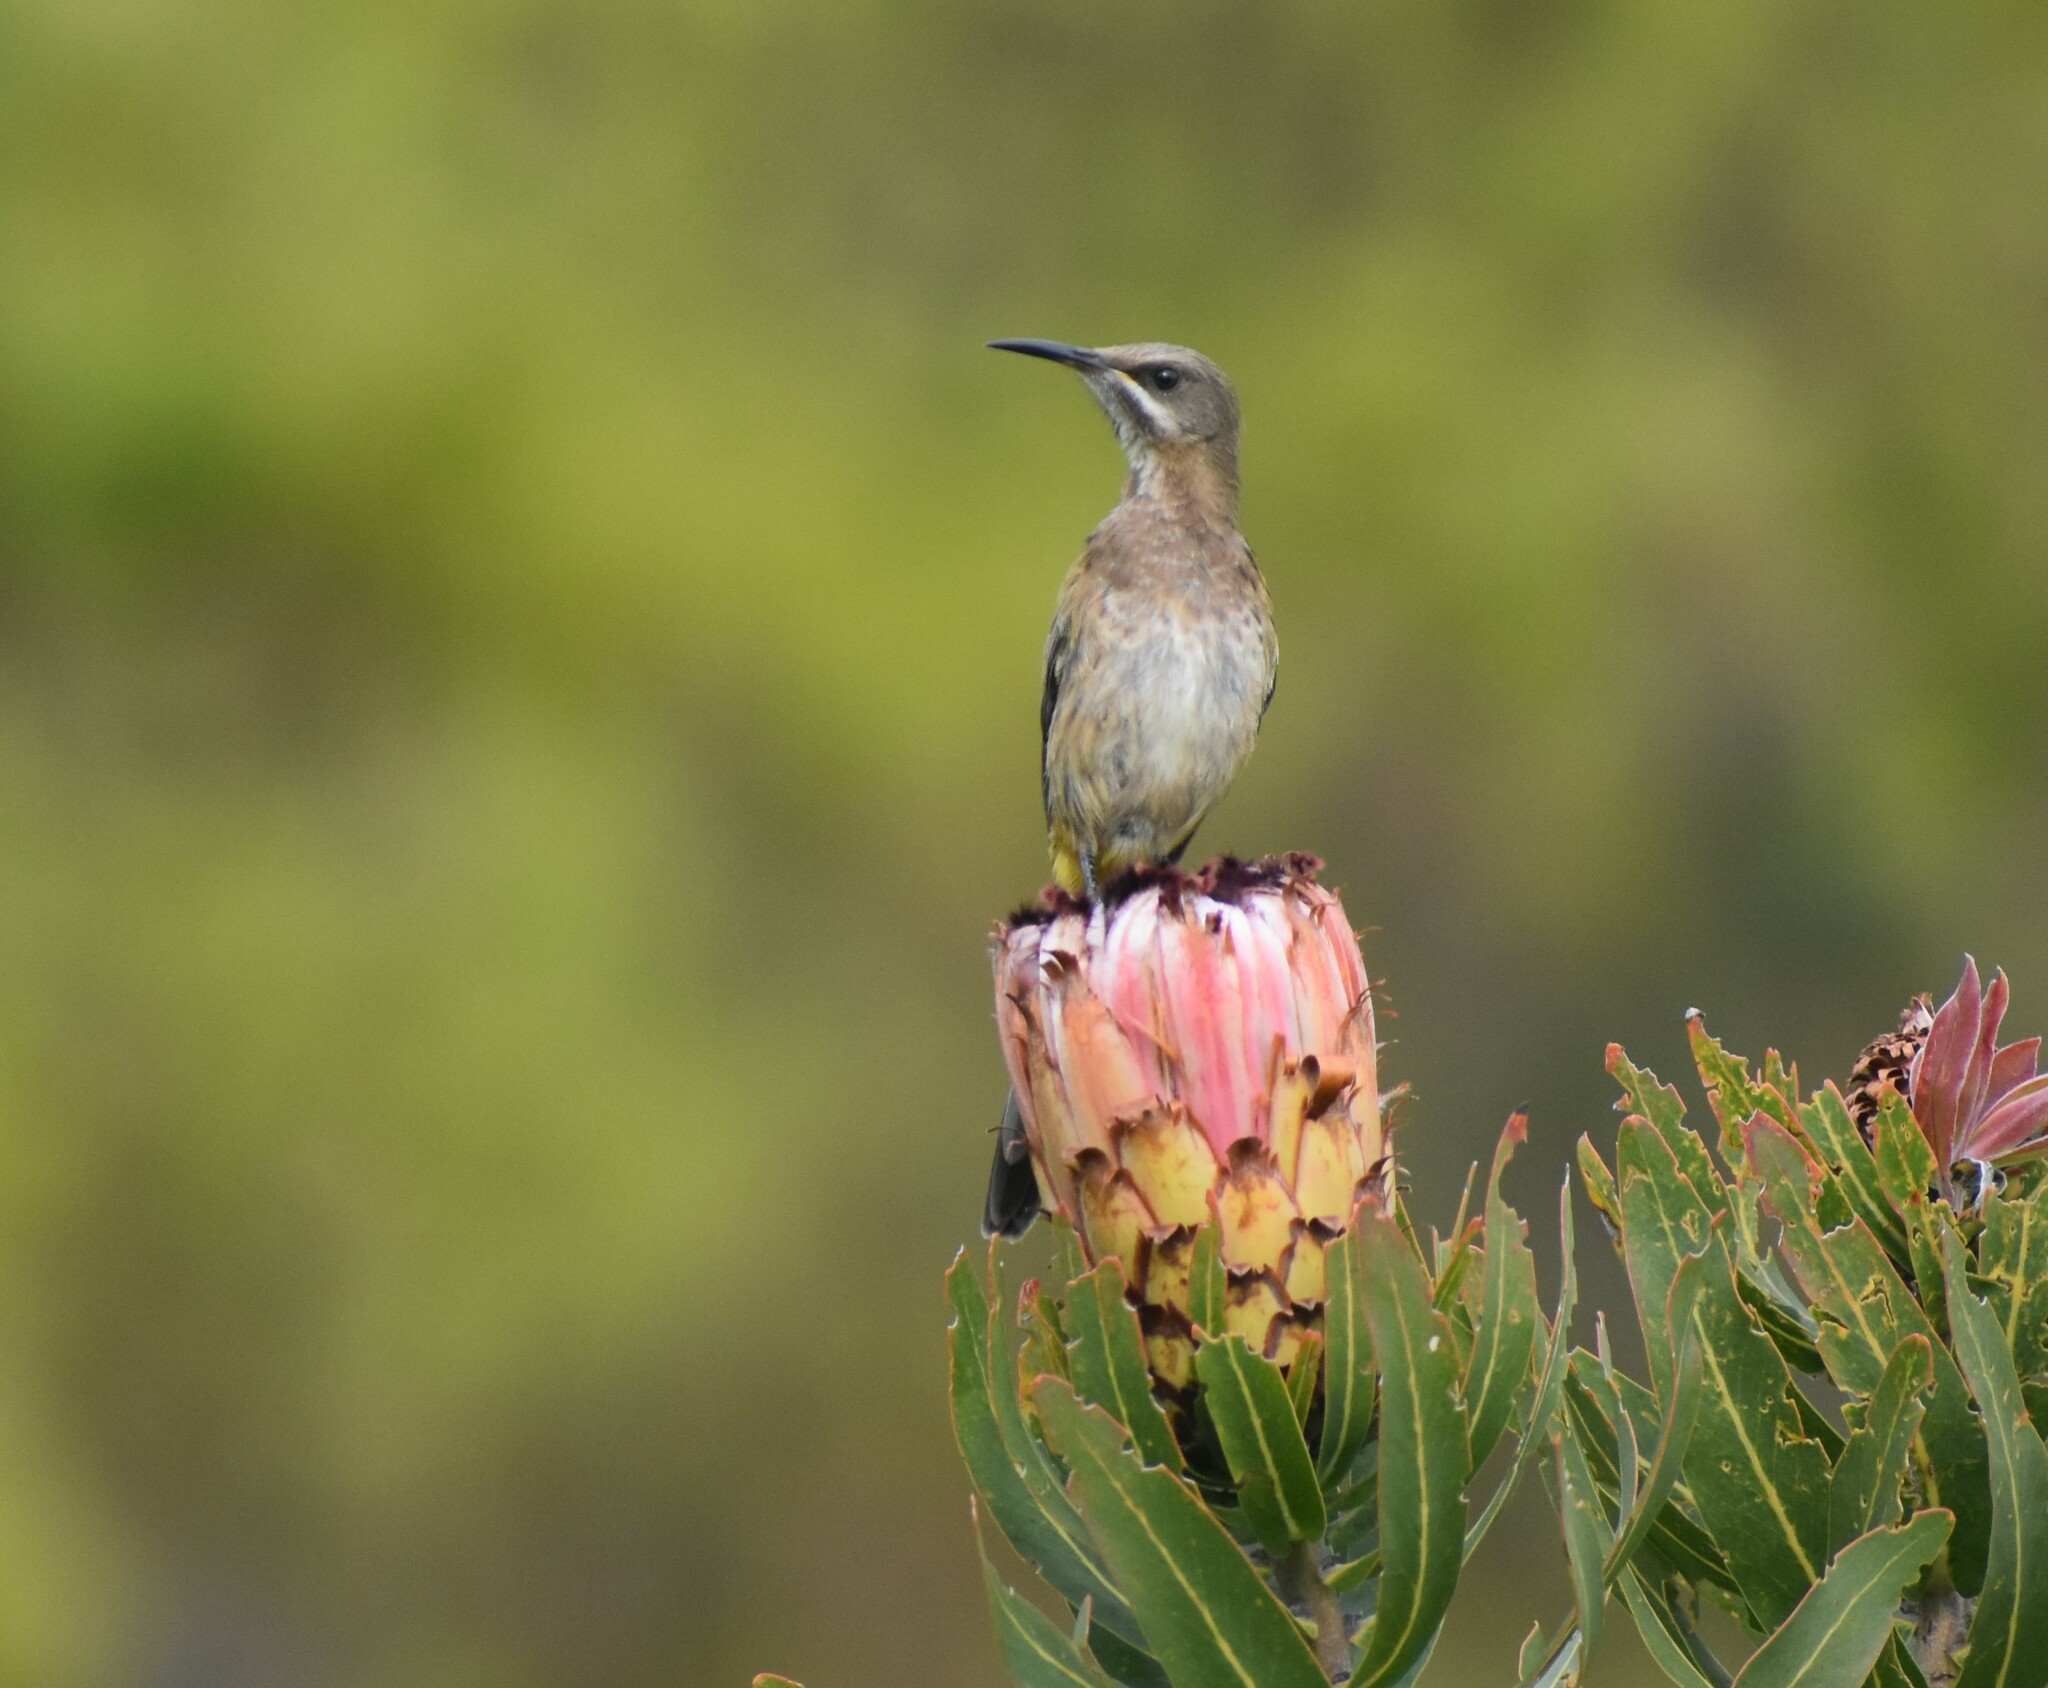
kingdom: Animalia
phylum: Chordata
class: Aves
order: Passeriformes
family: Promeropidae
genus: Promerops
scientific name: Promerops cafer
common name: Cape sugarbird
